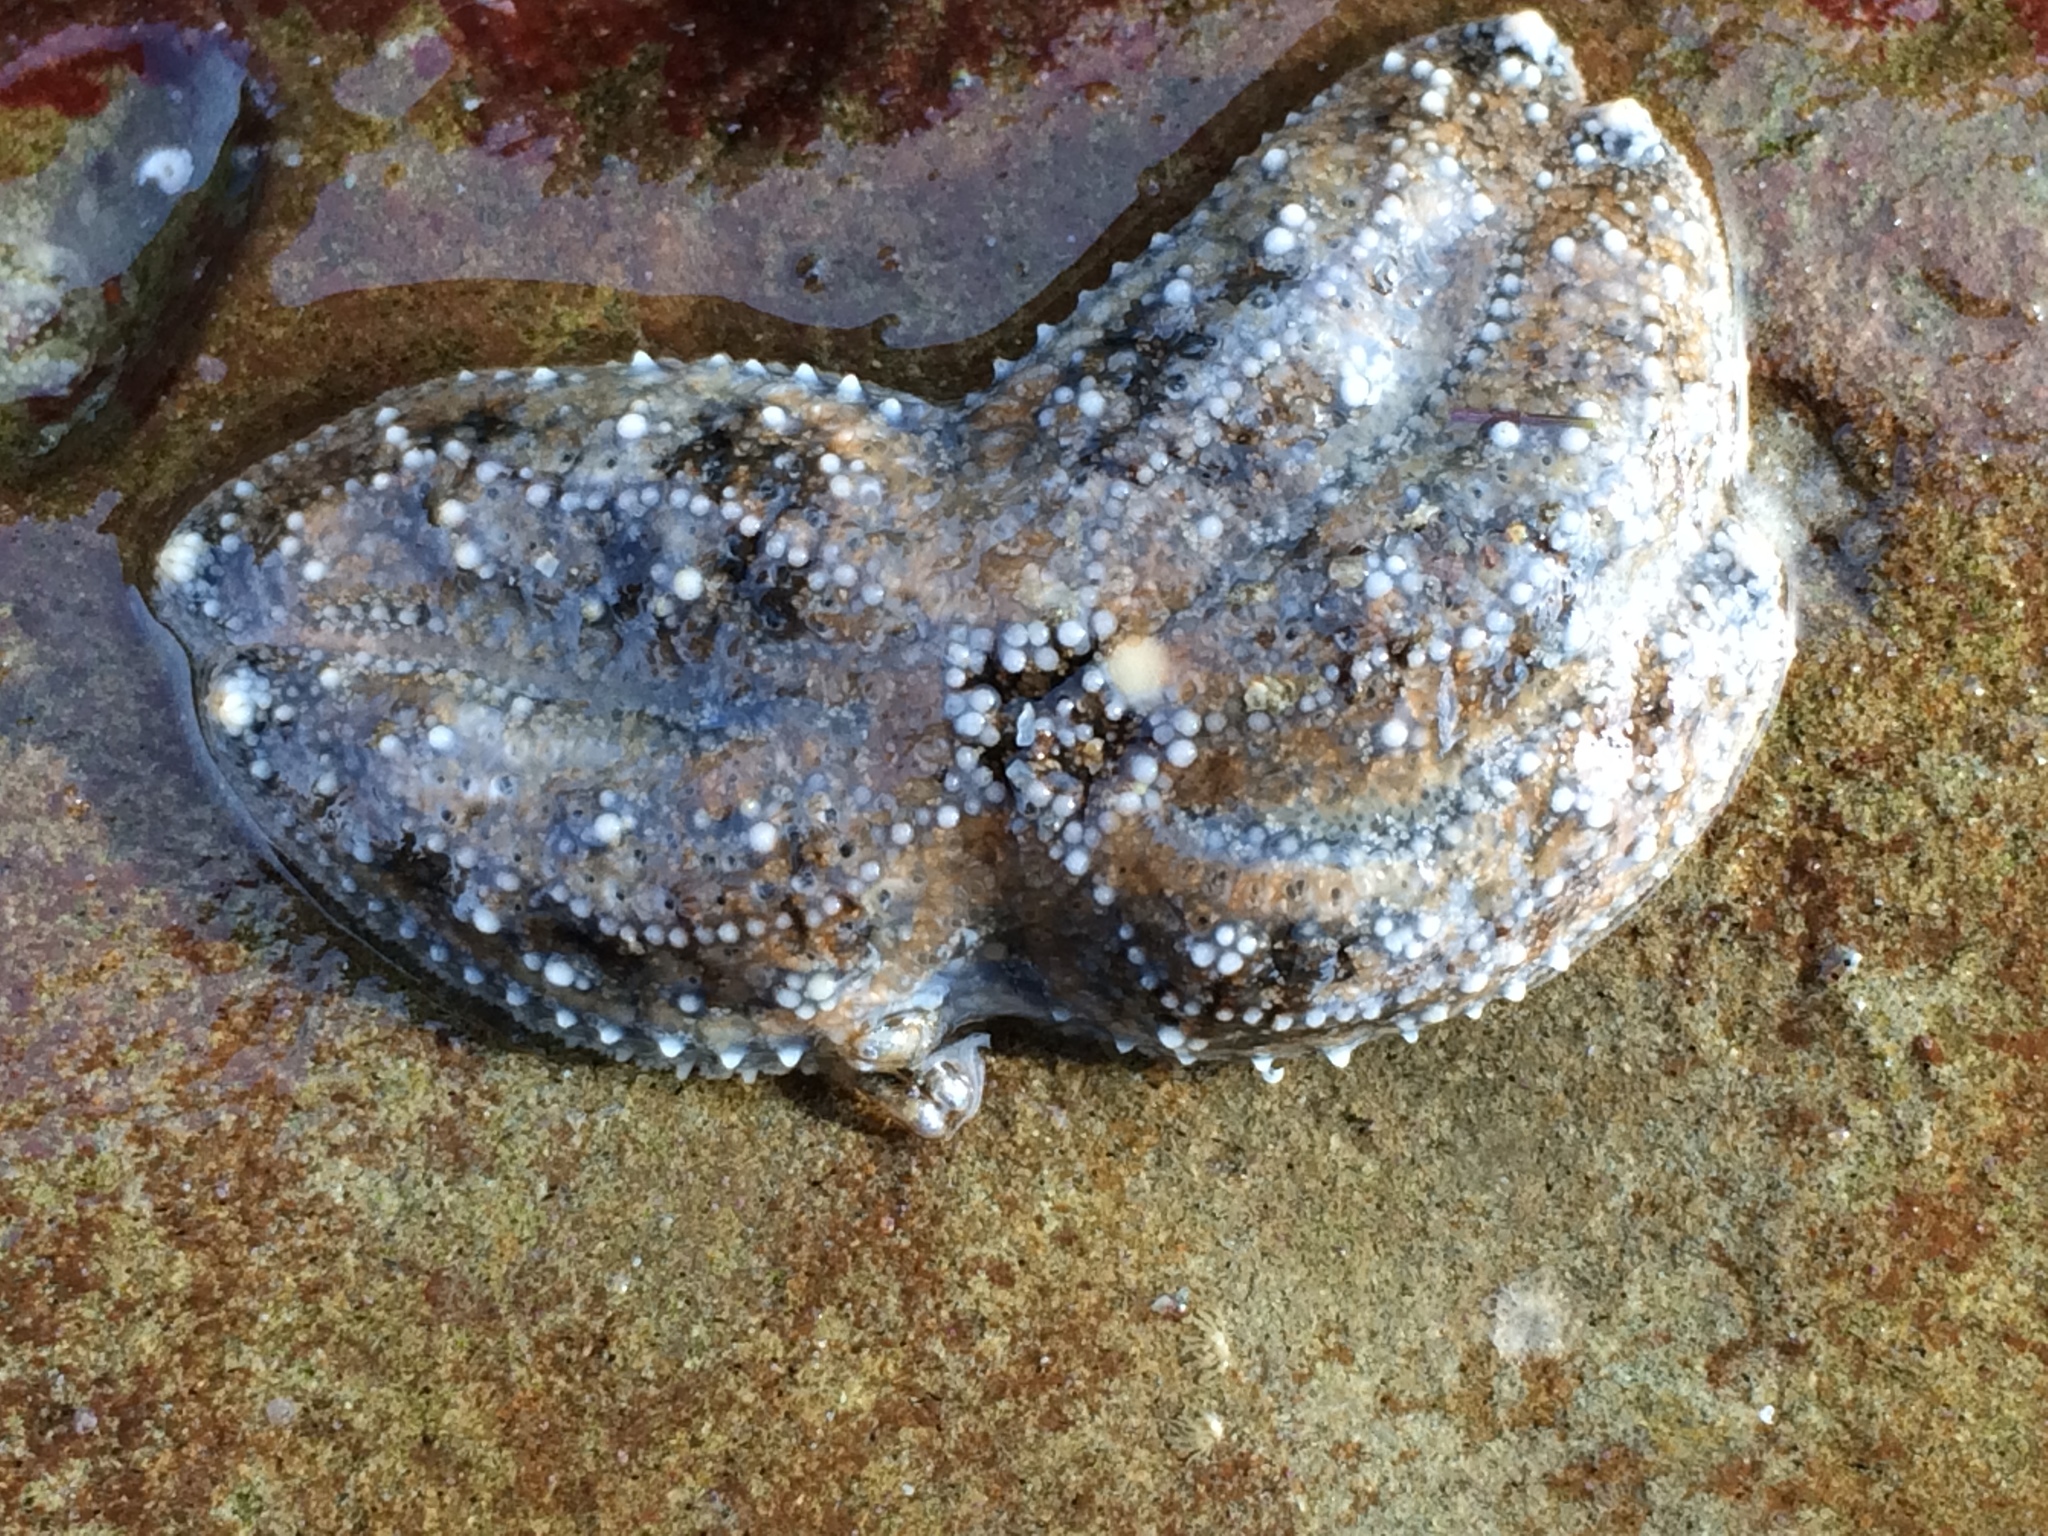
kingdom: Animalia
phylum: Echinodermata
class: Asteroidea
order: Forcipulatida
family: Asteriidae
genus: Pisaster
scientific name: Pisaster ochraceus
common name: Ochre stars
